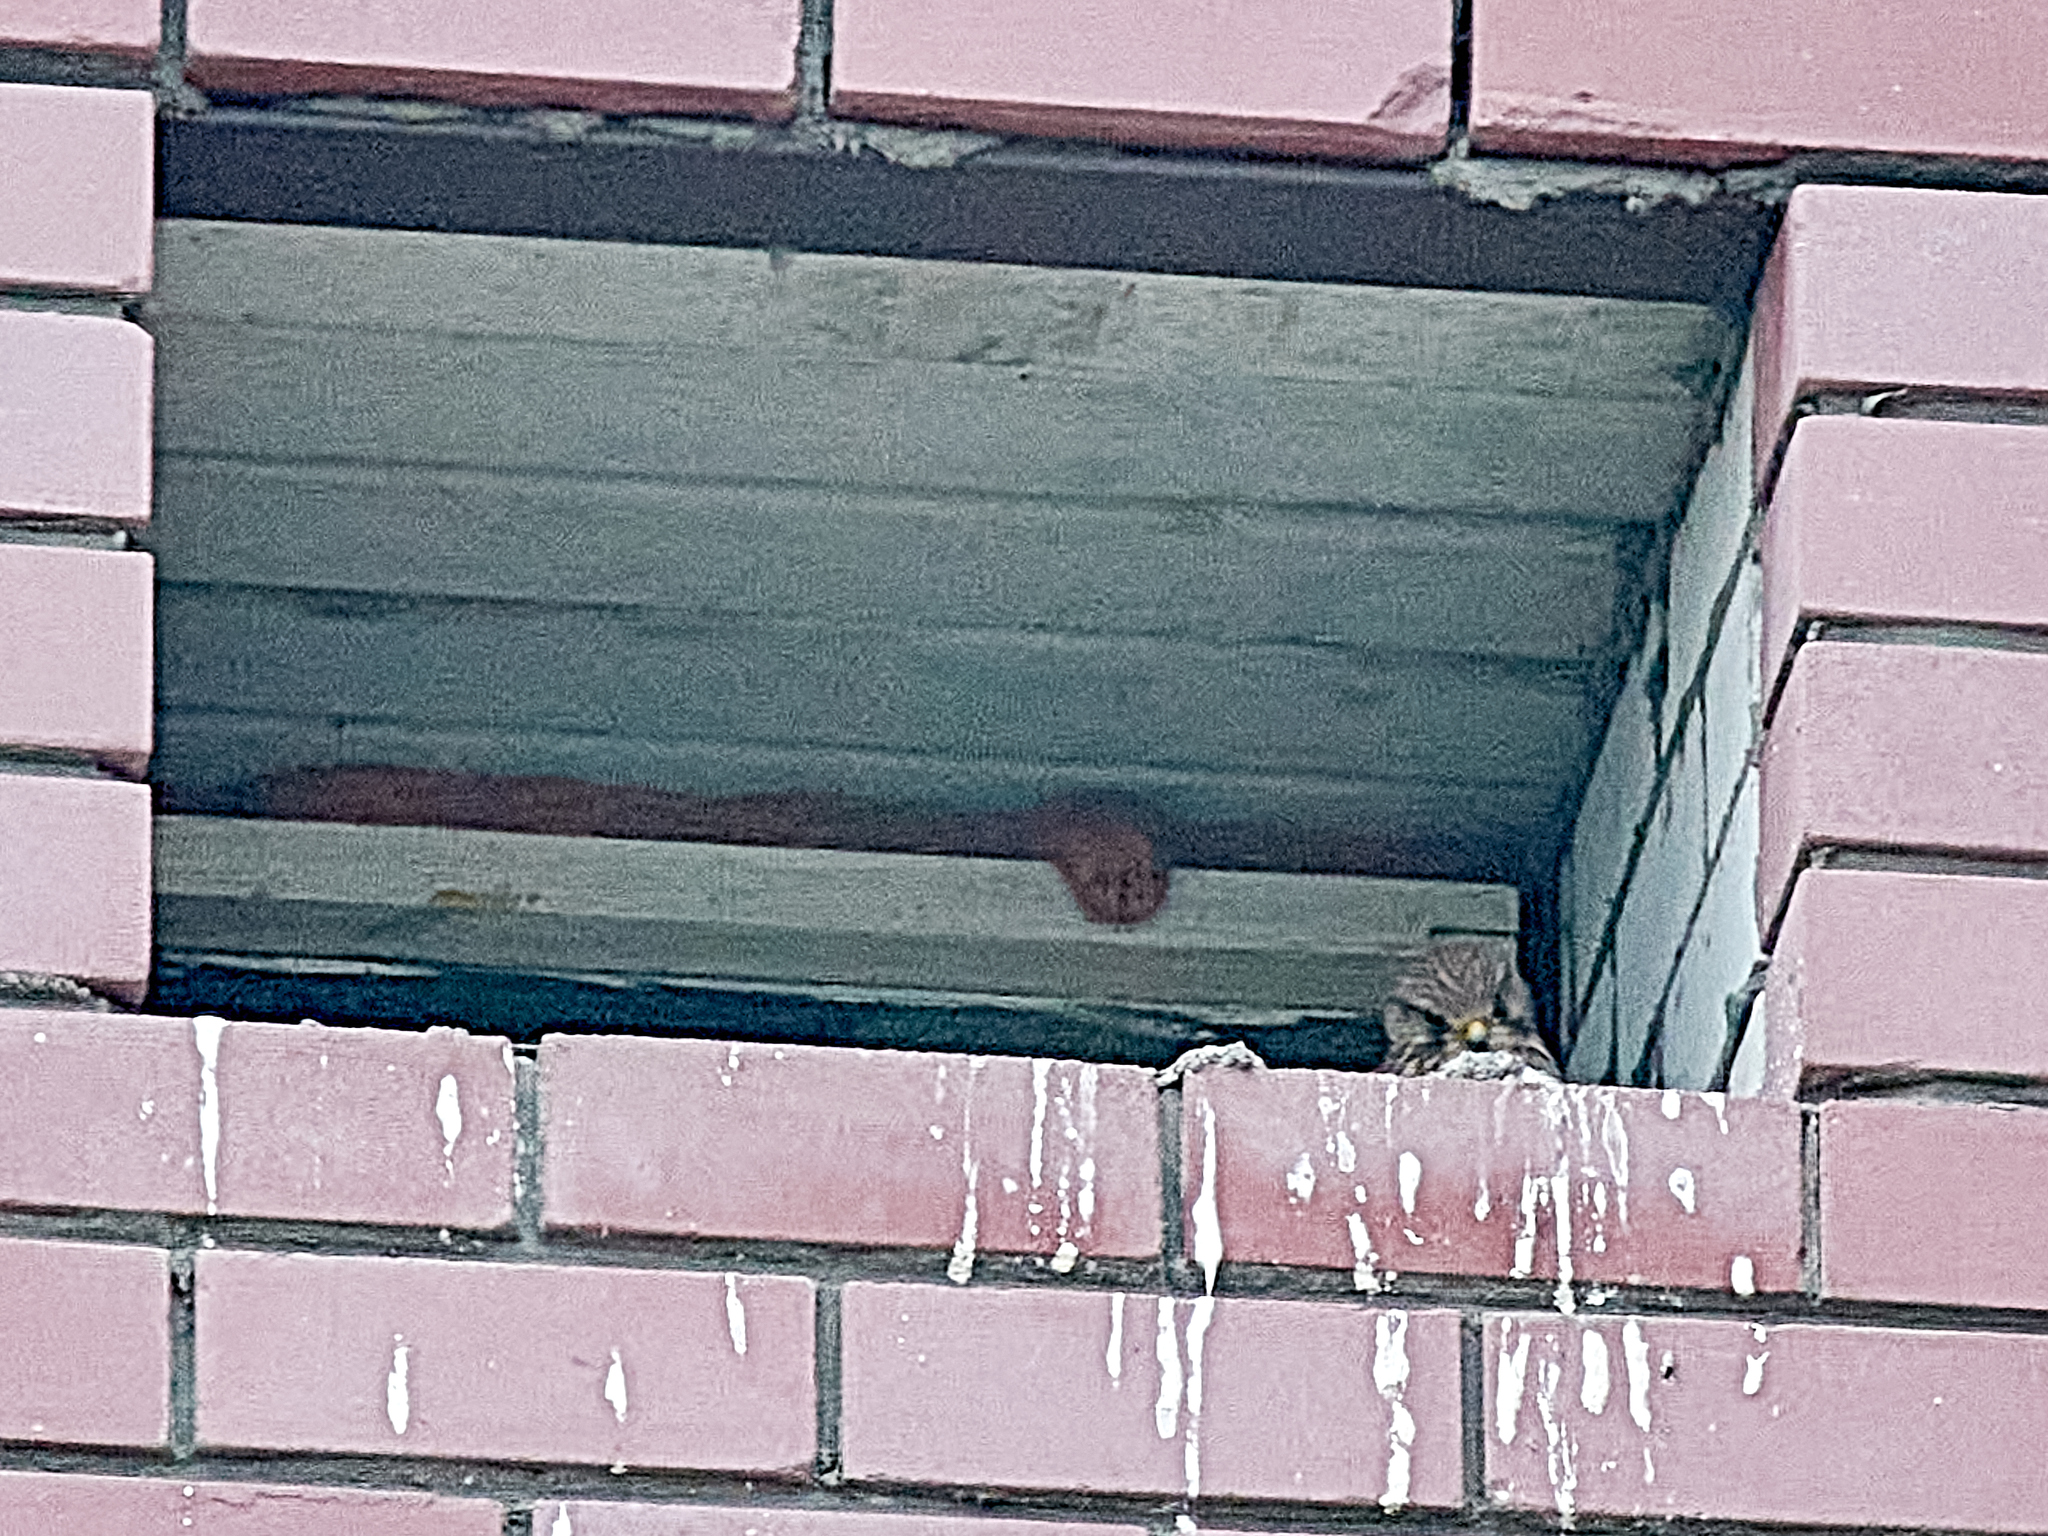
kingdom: Animalia
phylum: Chordata
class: Aves
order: Falconiformes
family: Falconidae
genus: Falco
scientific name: Falco tinnunculus
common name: Common kestrel
